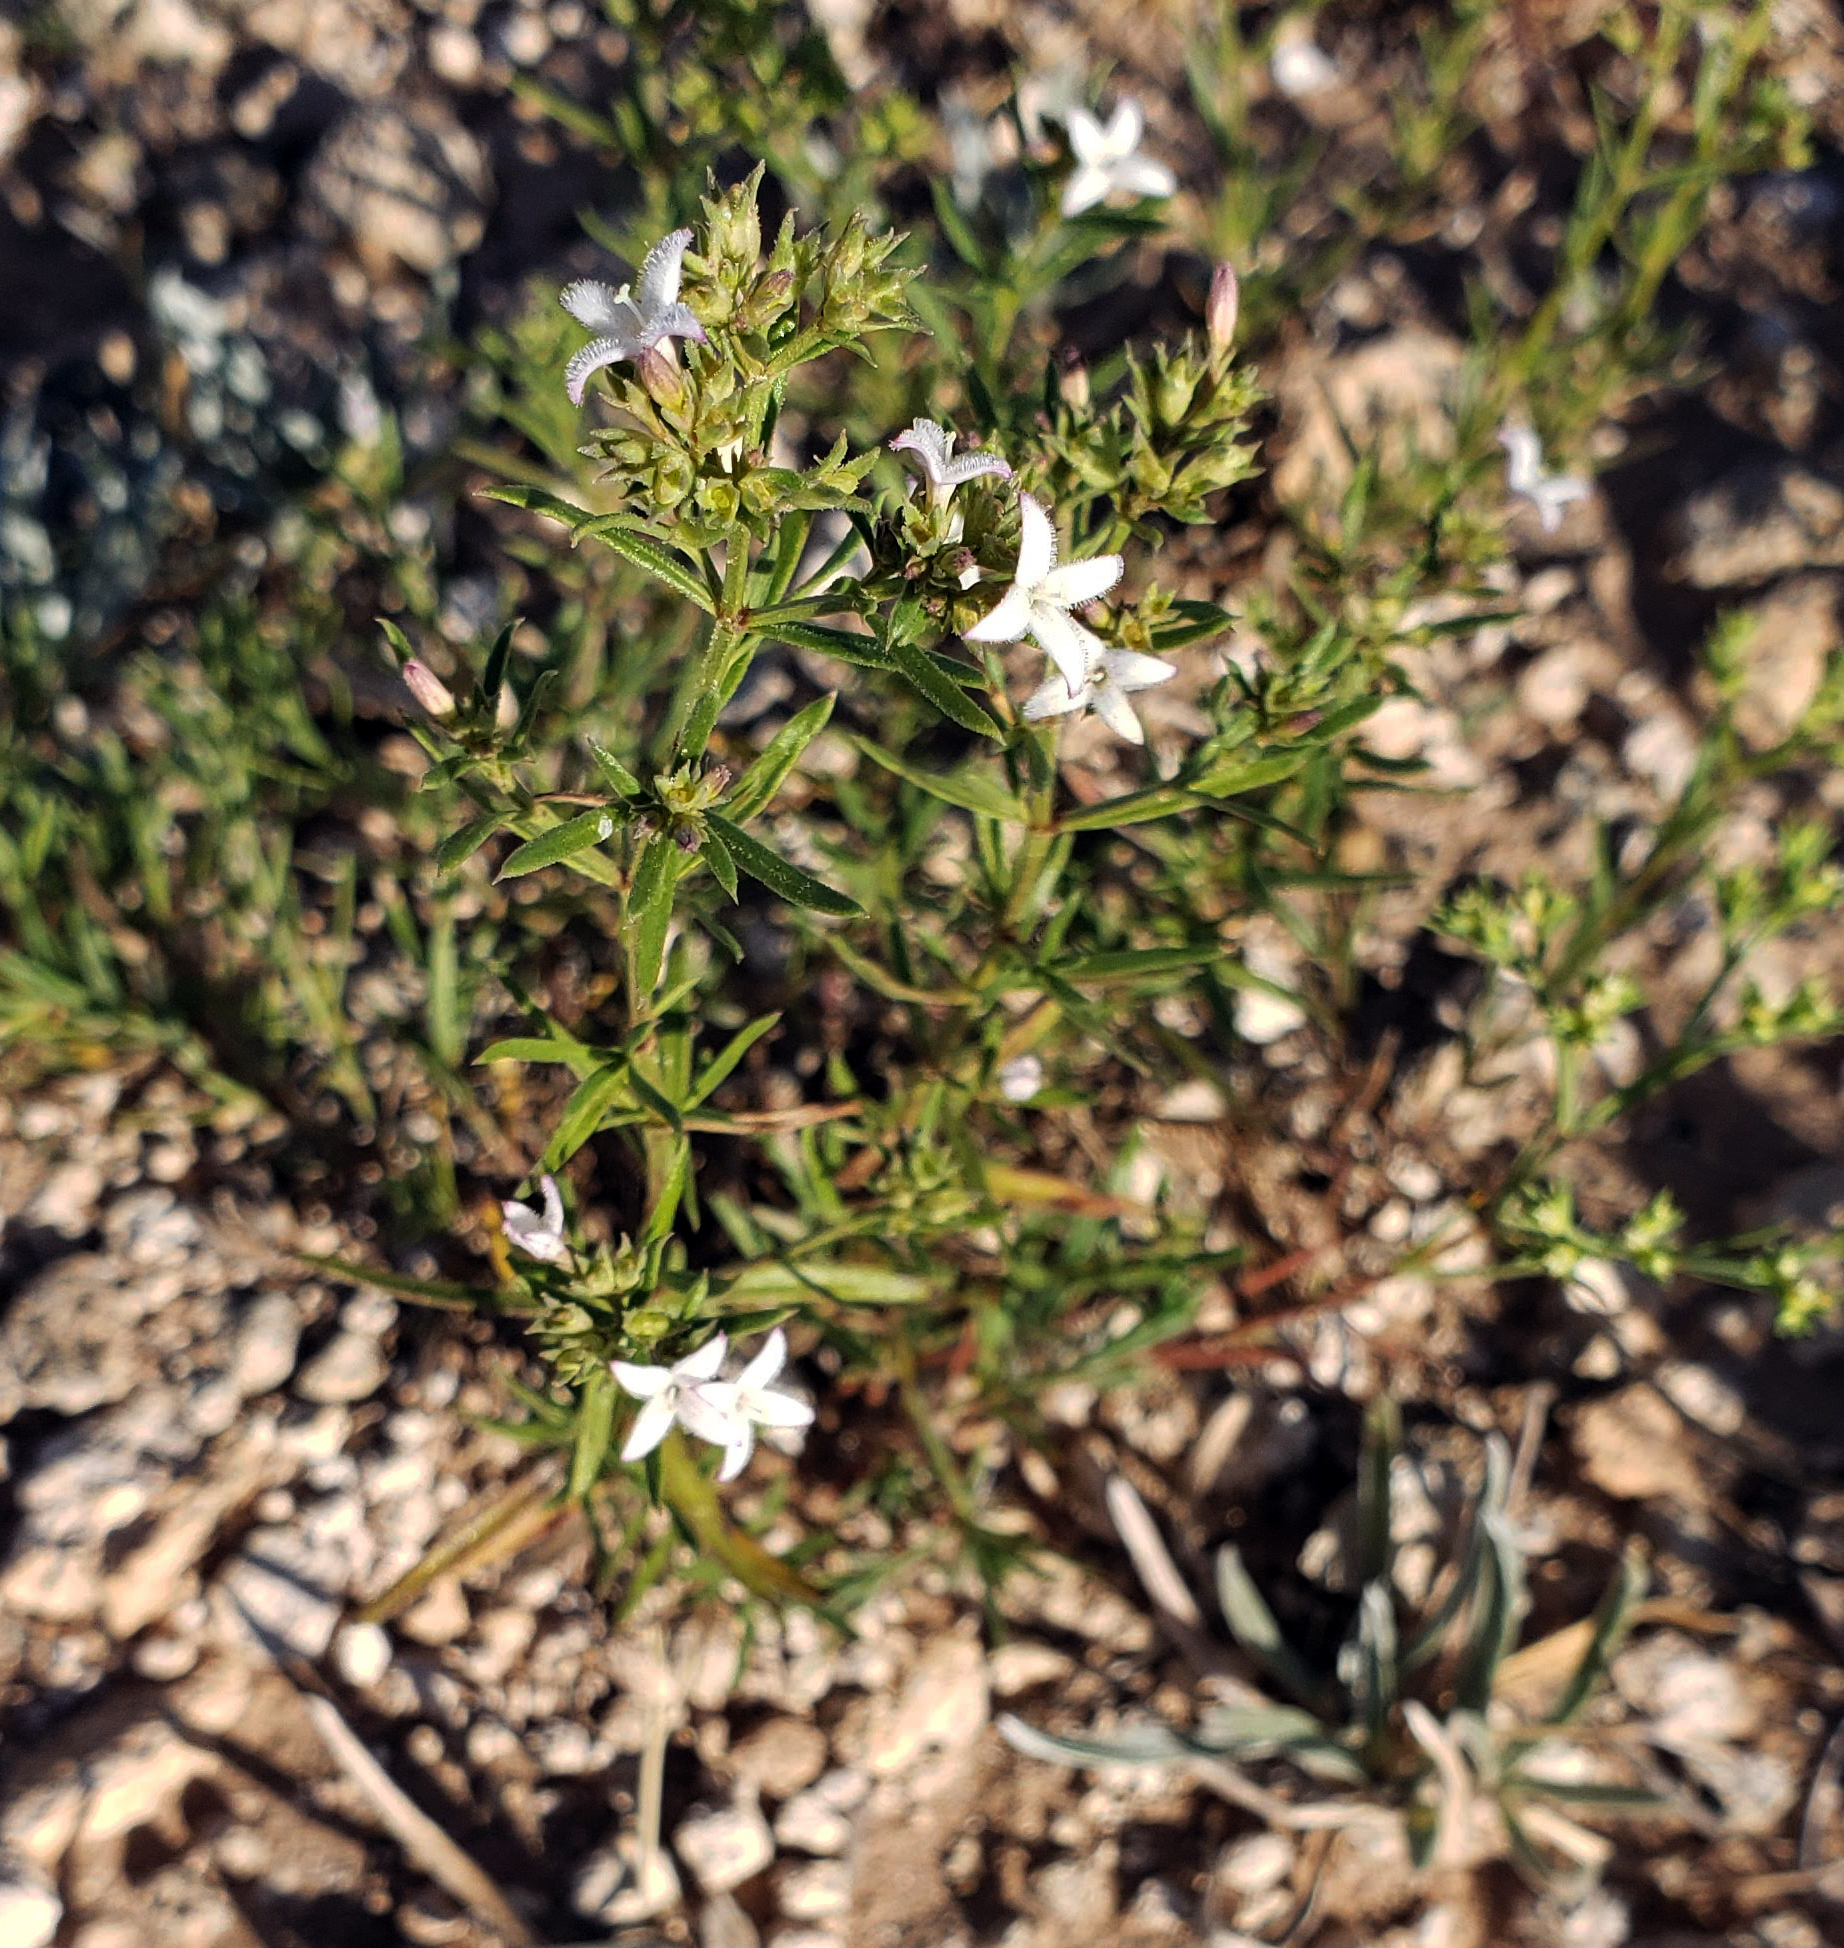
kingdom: Plantae
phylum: Tracheophyta
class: Magnoliopsida
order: Gentianales
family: Rubiaceae
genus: Stenaria
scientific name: Stenaria nigricans
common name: Diamondflowers
